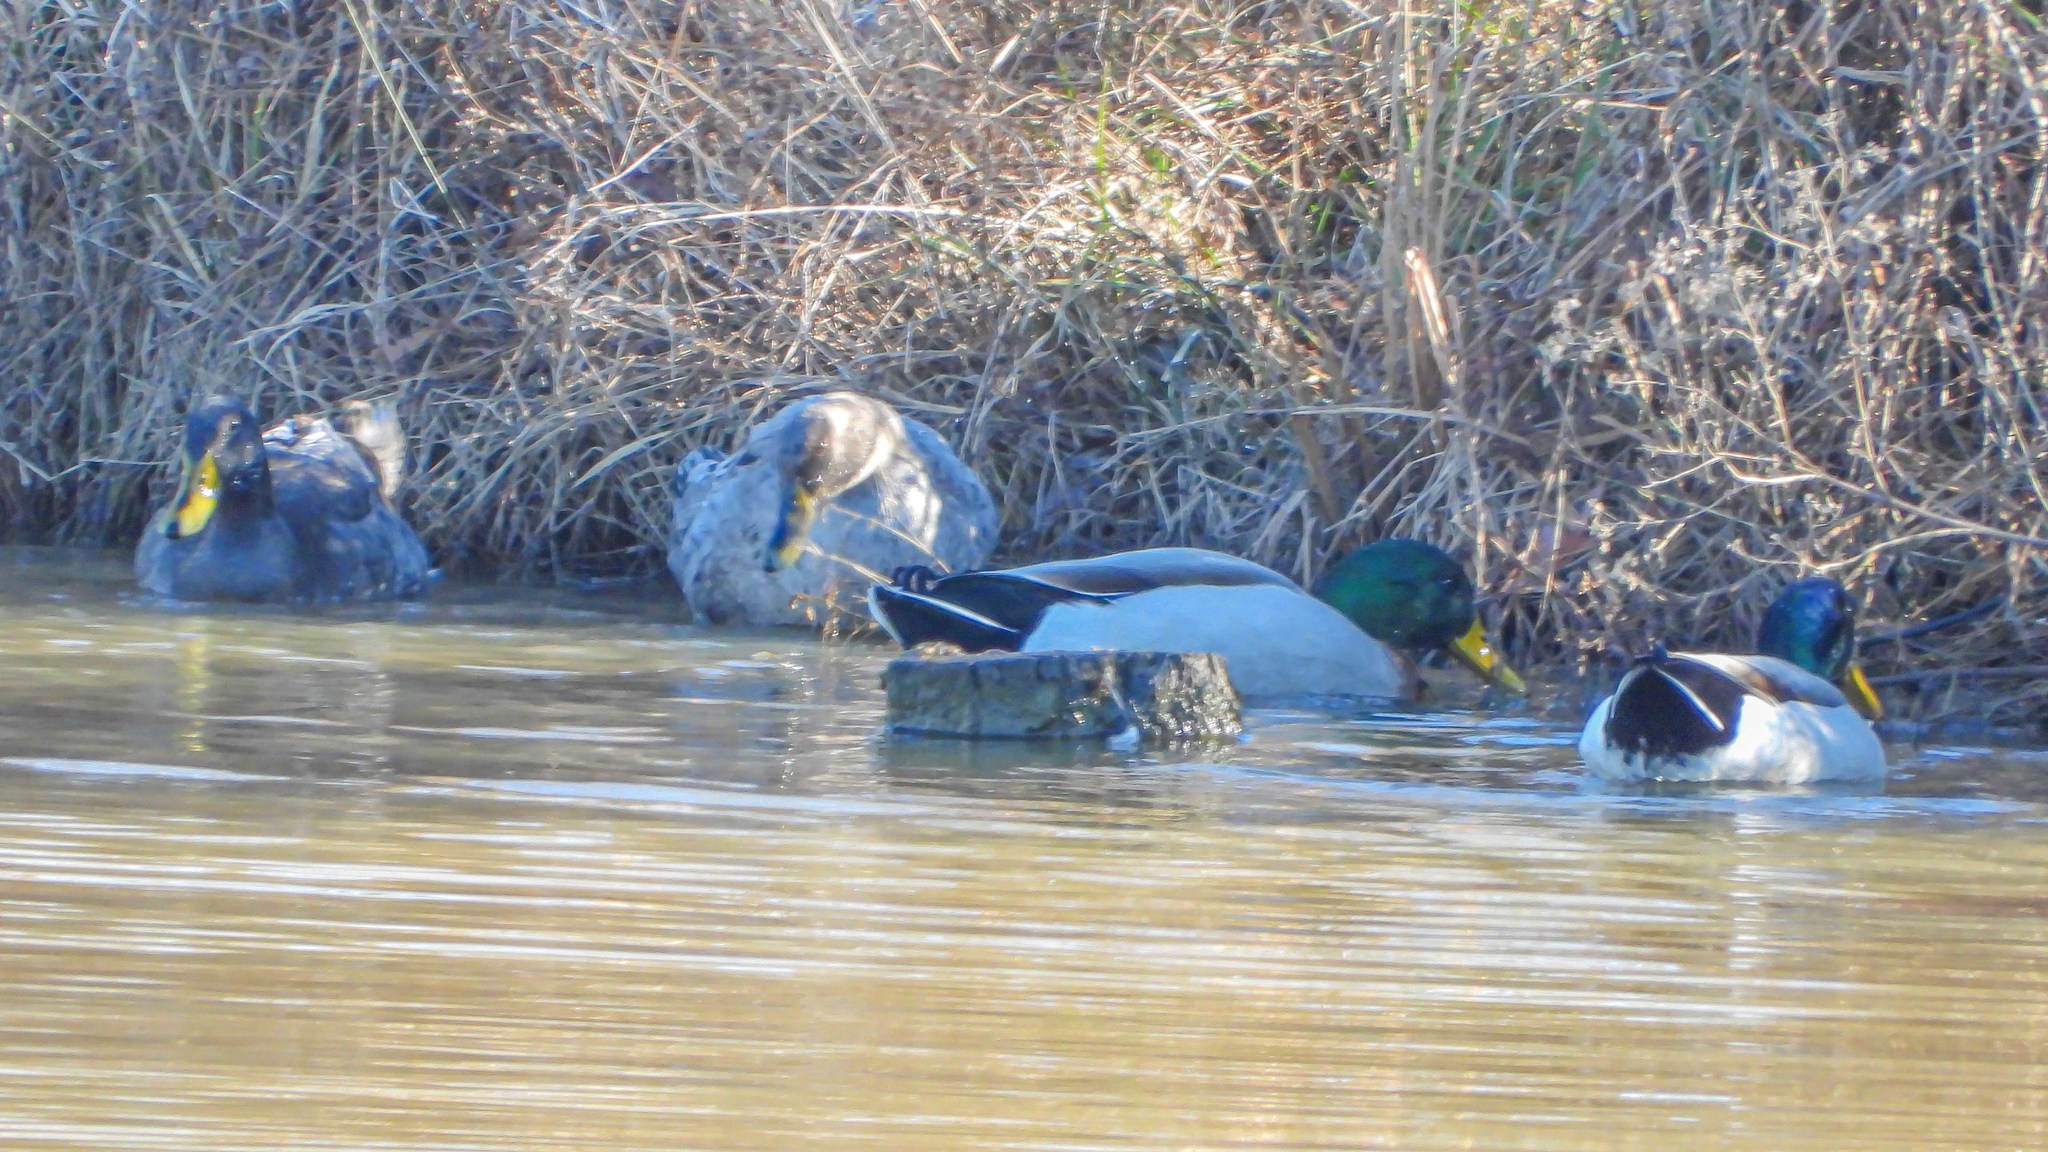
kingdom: Animalia
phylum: Chordata
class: Aves
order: Anseriformes
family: Anatidae
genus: Anas
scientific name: Anas platyrhynchos
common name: Mallard
